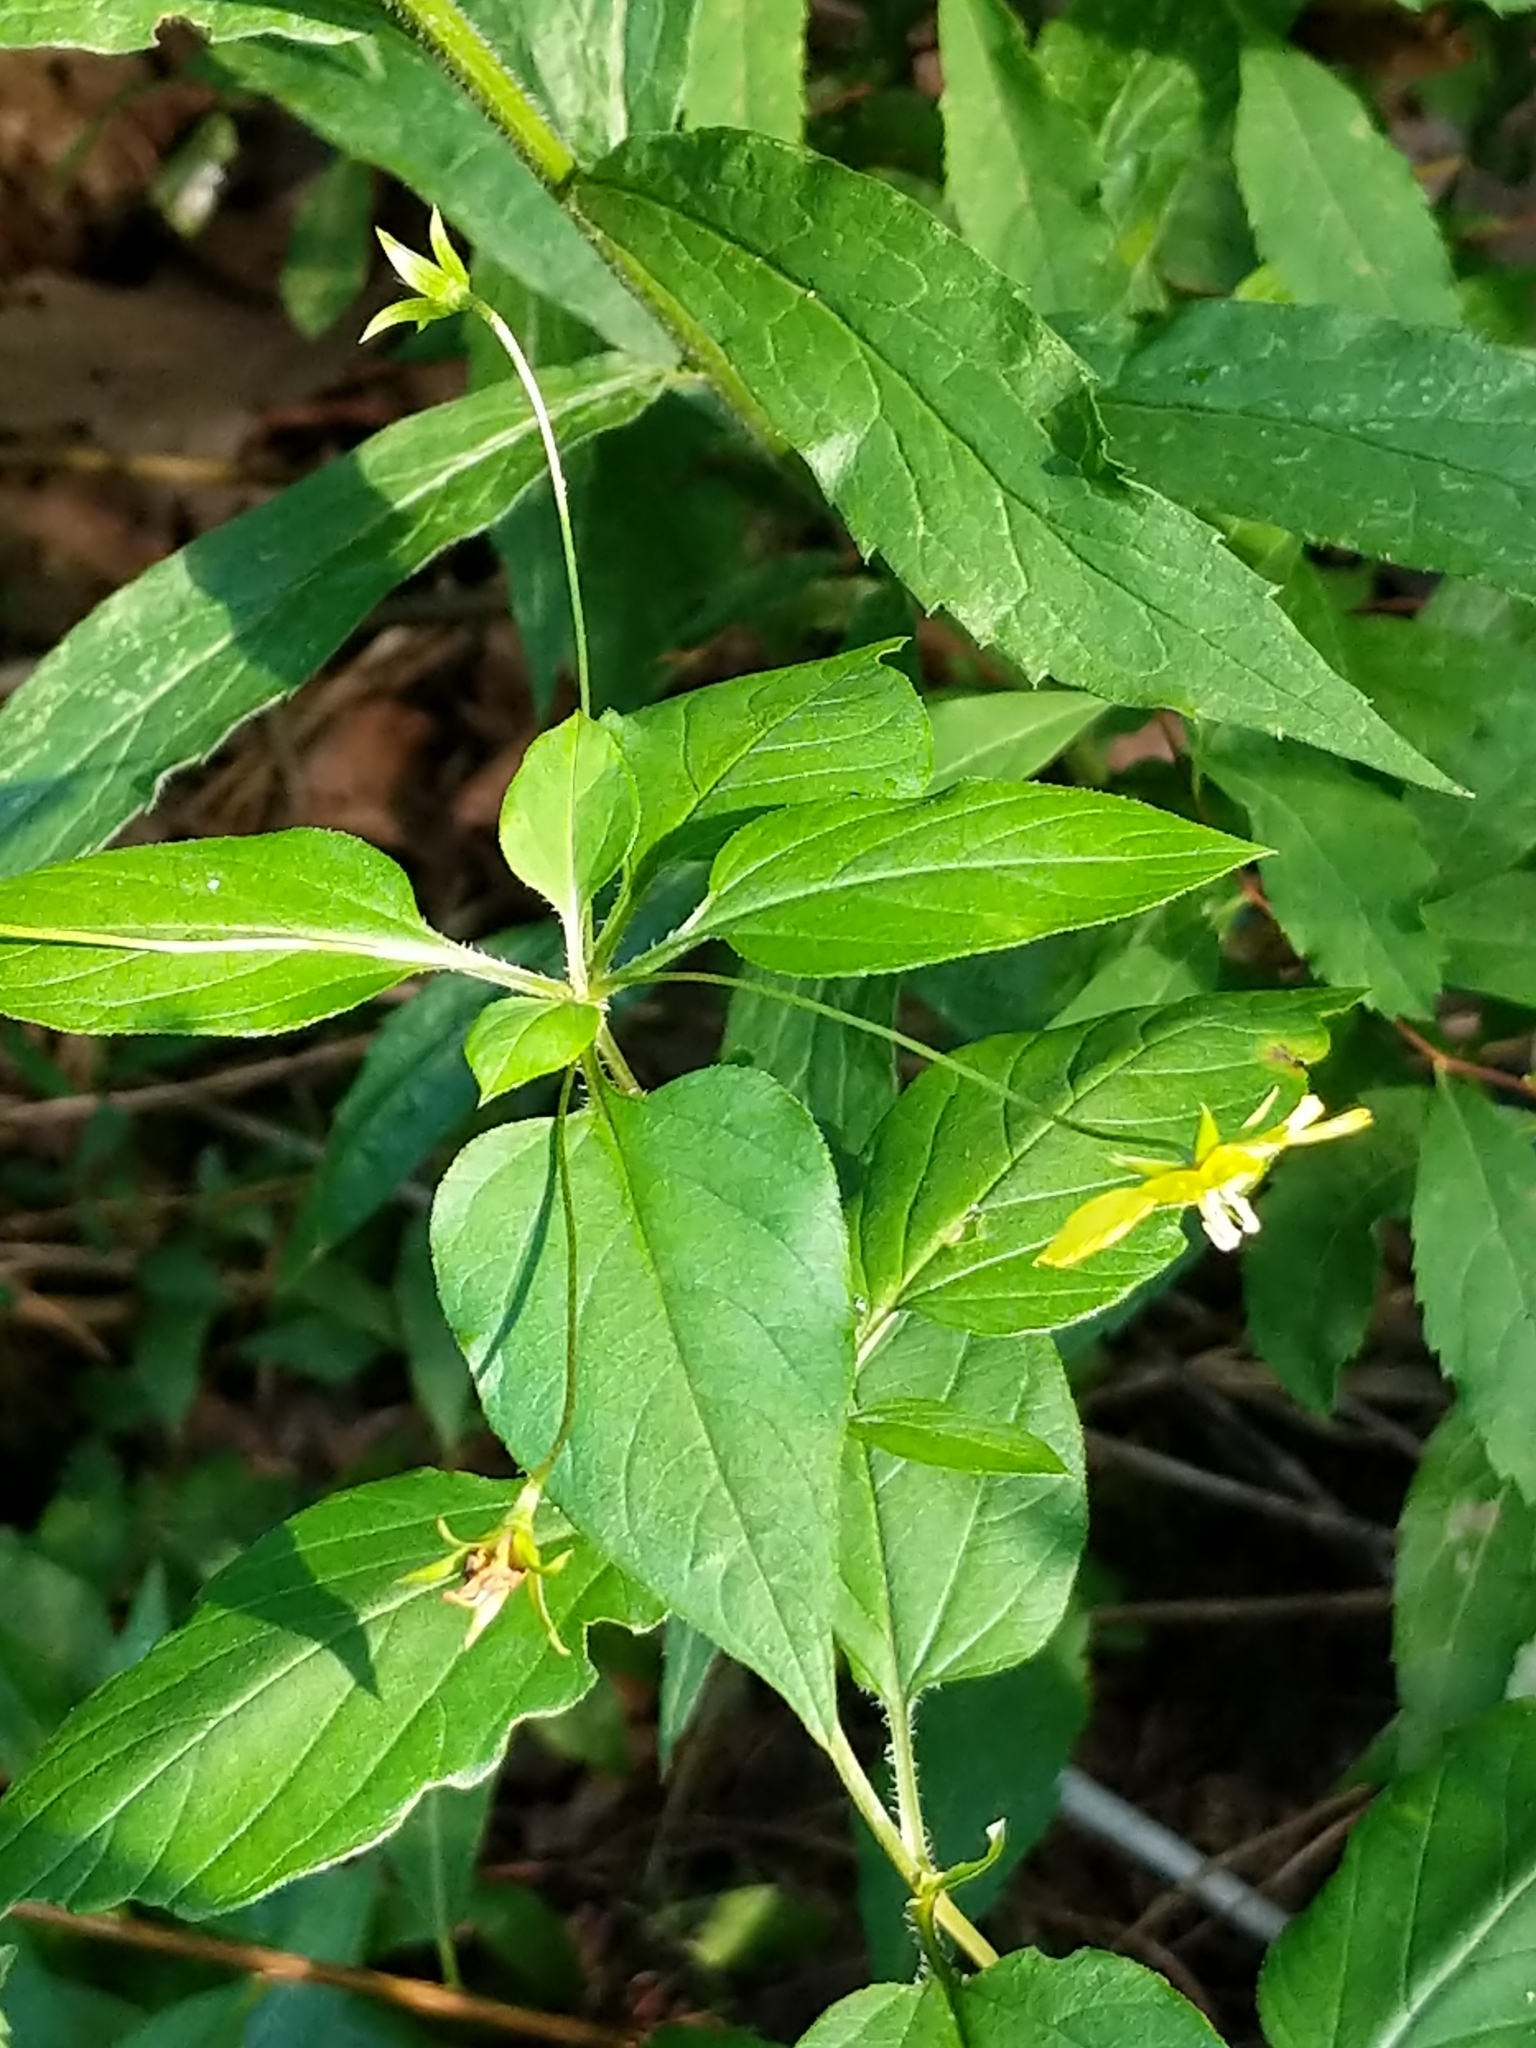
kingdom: Plantae
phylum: Tracheophyta
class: Magnoliopsida
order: Ericales
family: Primulaceae
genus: Lysimachia
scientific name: Lysimachia ciliata
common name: Fringed loosestrife
